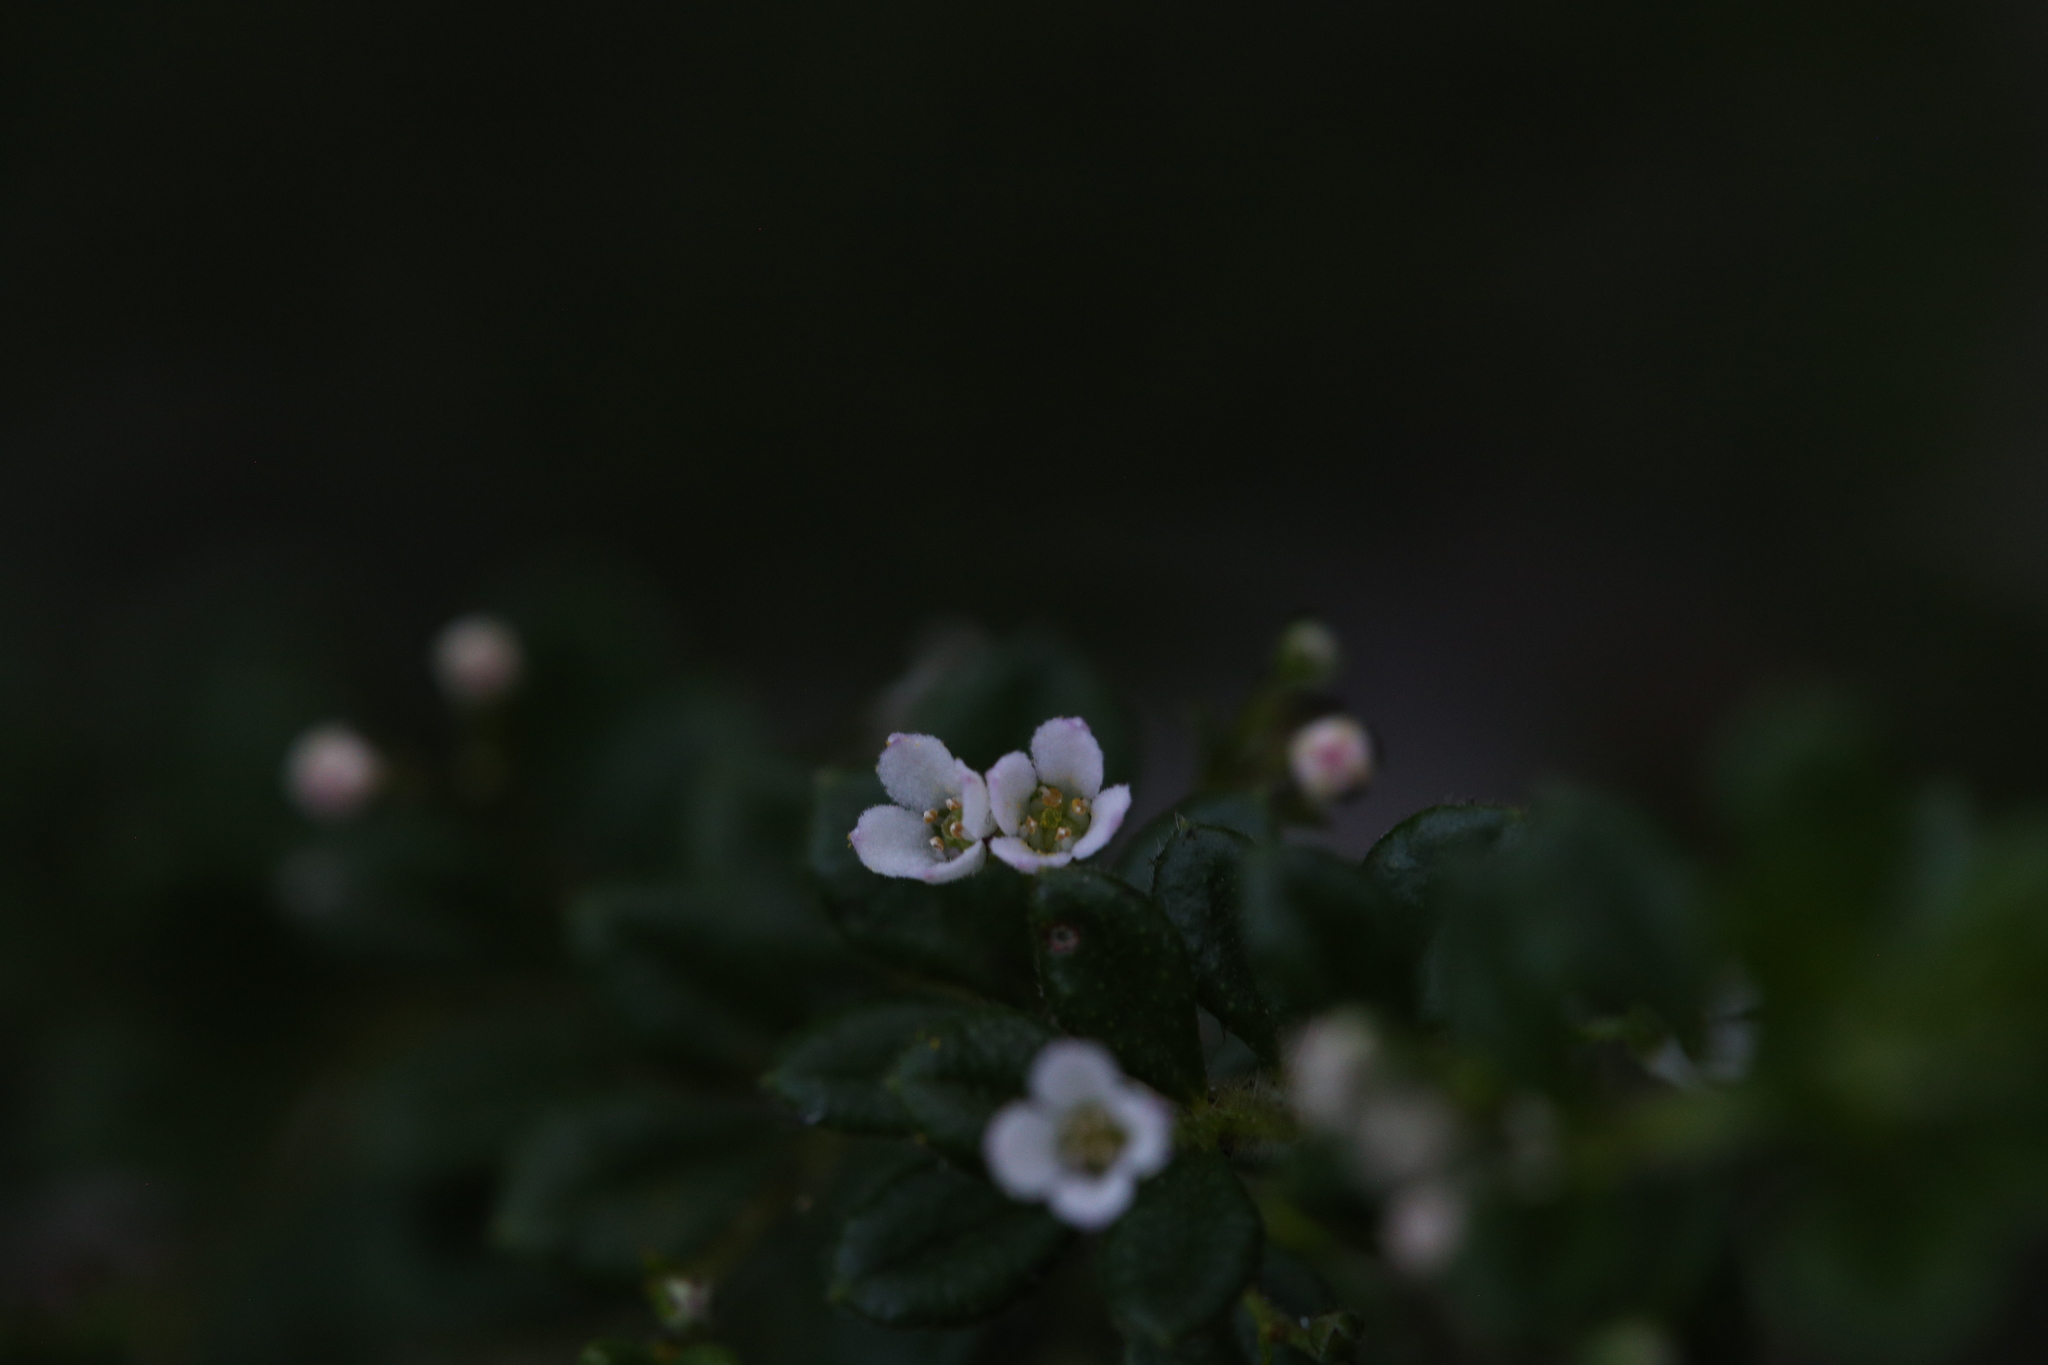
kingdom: Plantae
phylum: Tracheophyta
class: Magnoliopsida
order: Sapindales
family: Rutaceae
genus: Zieria
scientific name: Zieria obovata
